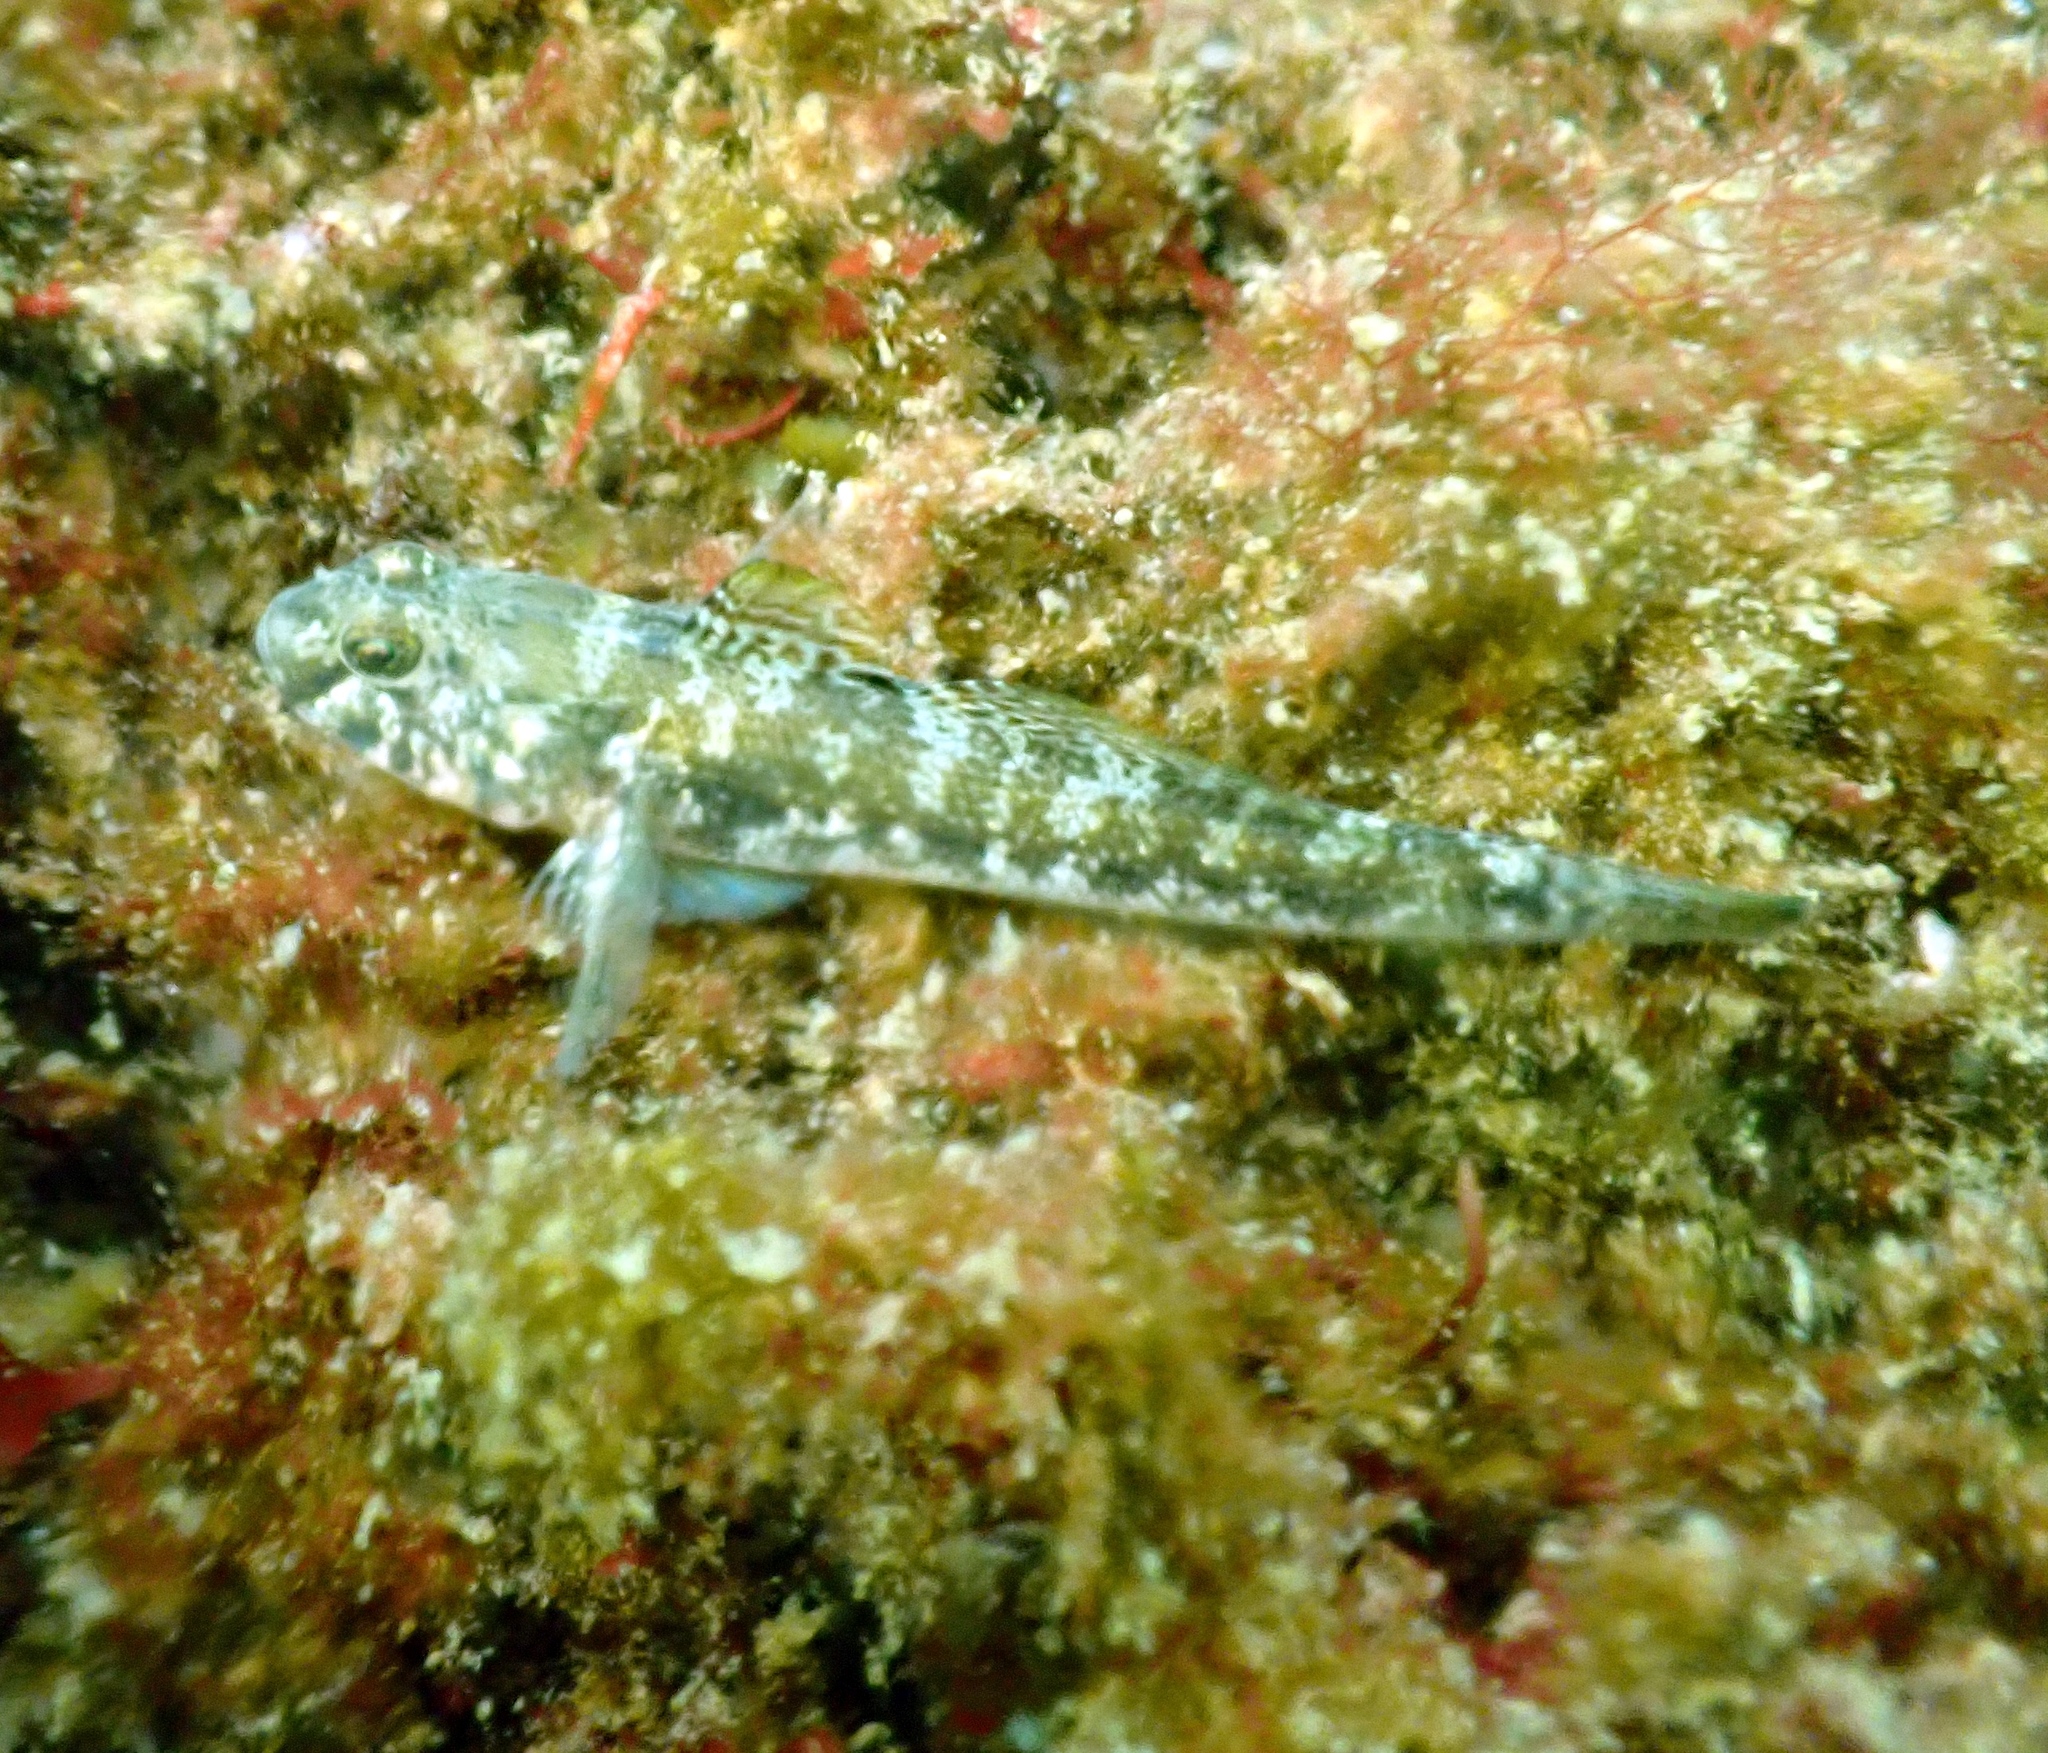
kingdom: Animalia
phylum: Chordata
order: Perciformes
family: Gobiidae
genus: Gobius
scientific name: Gobius niger
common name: Black goby
